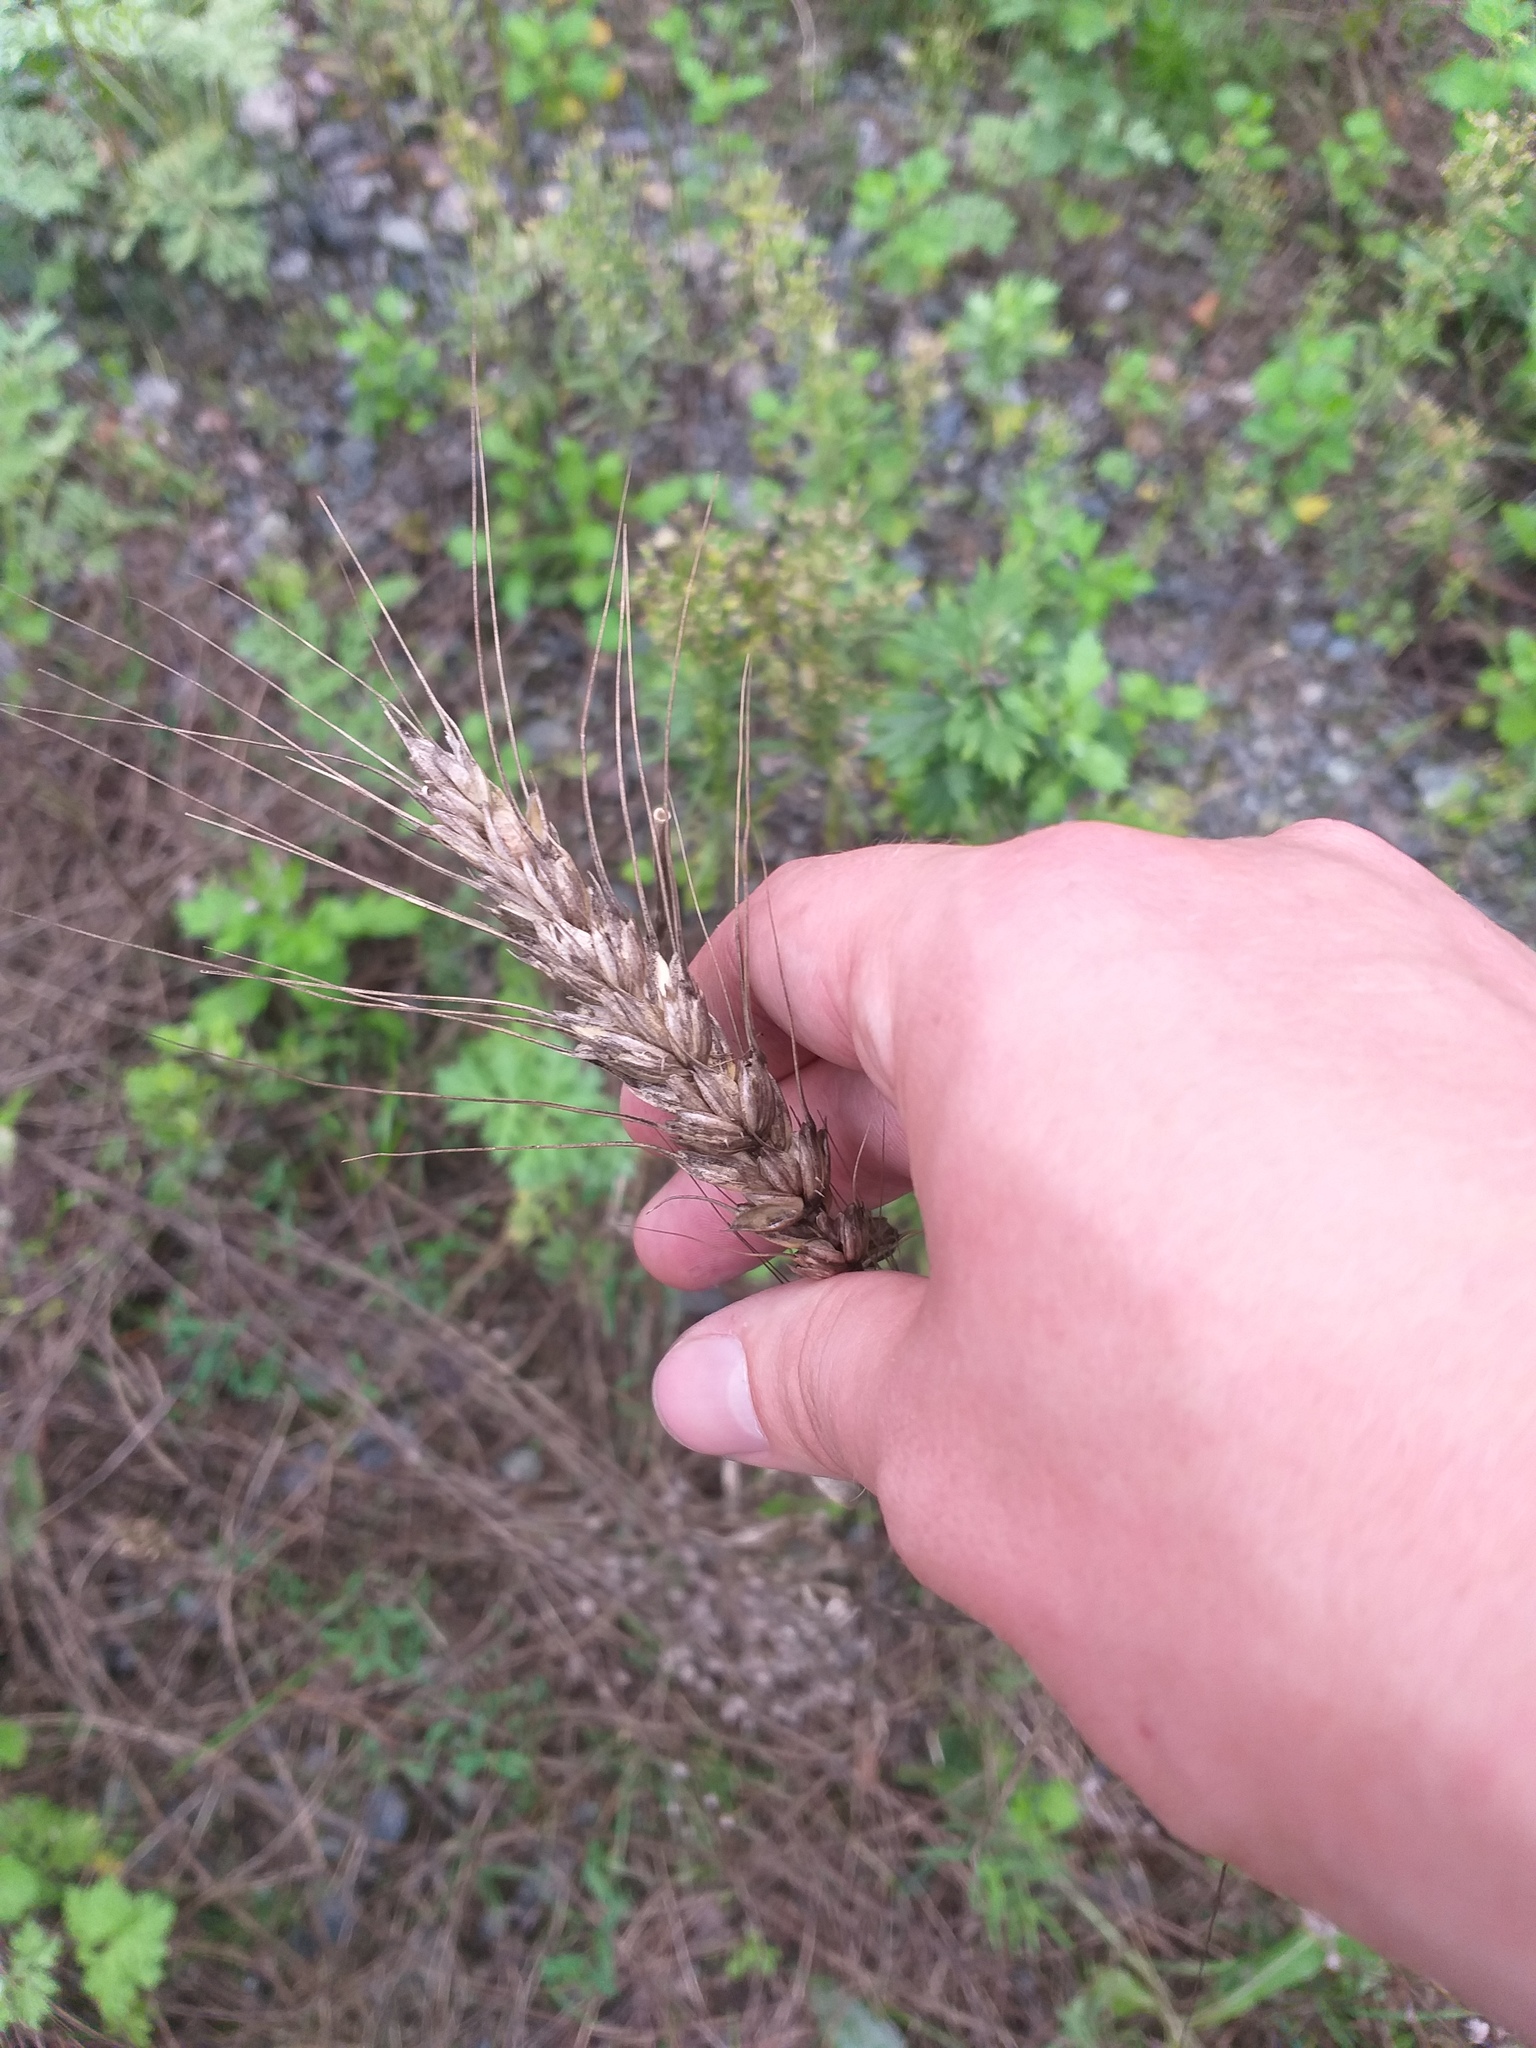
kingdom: Plantae
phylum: Tracheophyta
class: Liliopsida
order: Poales
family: Poaceae
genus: Triticum
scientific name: Triticum aestivum
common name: Common wheat
